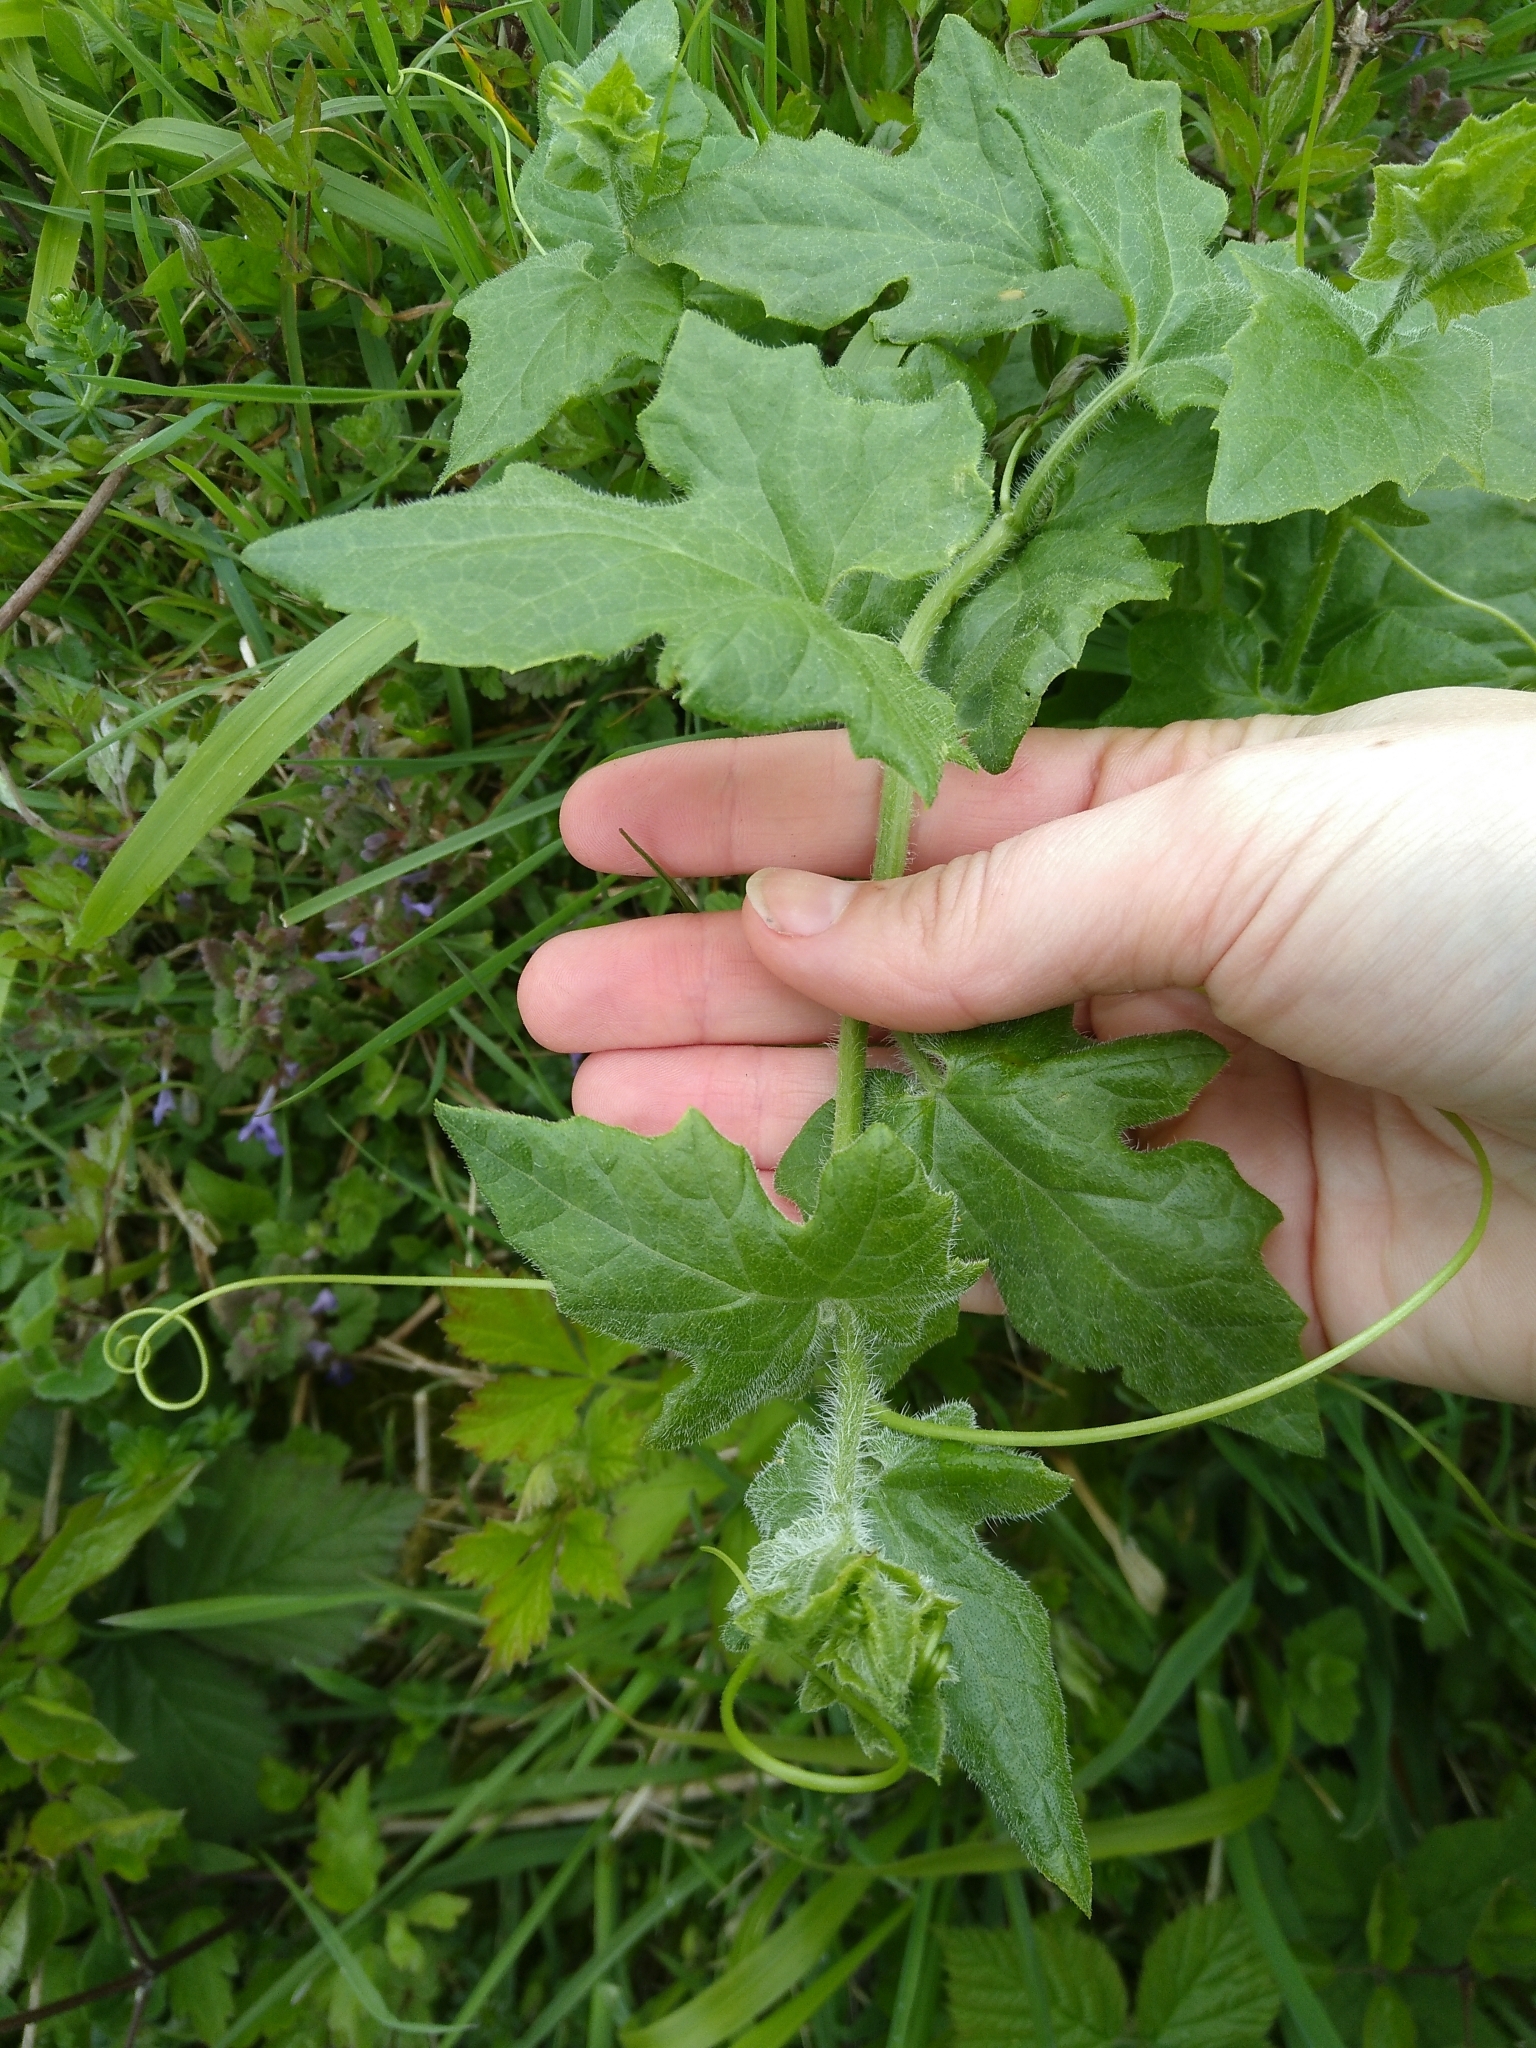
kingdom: Plantae
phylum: Tracheophyta
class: Magnoliopsida
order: Cucurbitales
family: Cucurbitaceae
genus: Bryonia
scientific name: Bryonia cretica
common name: Cretan bryony
